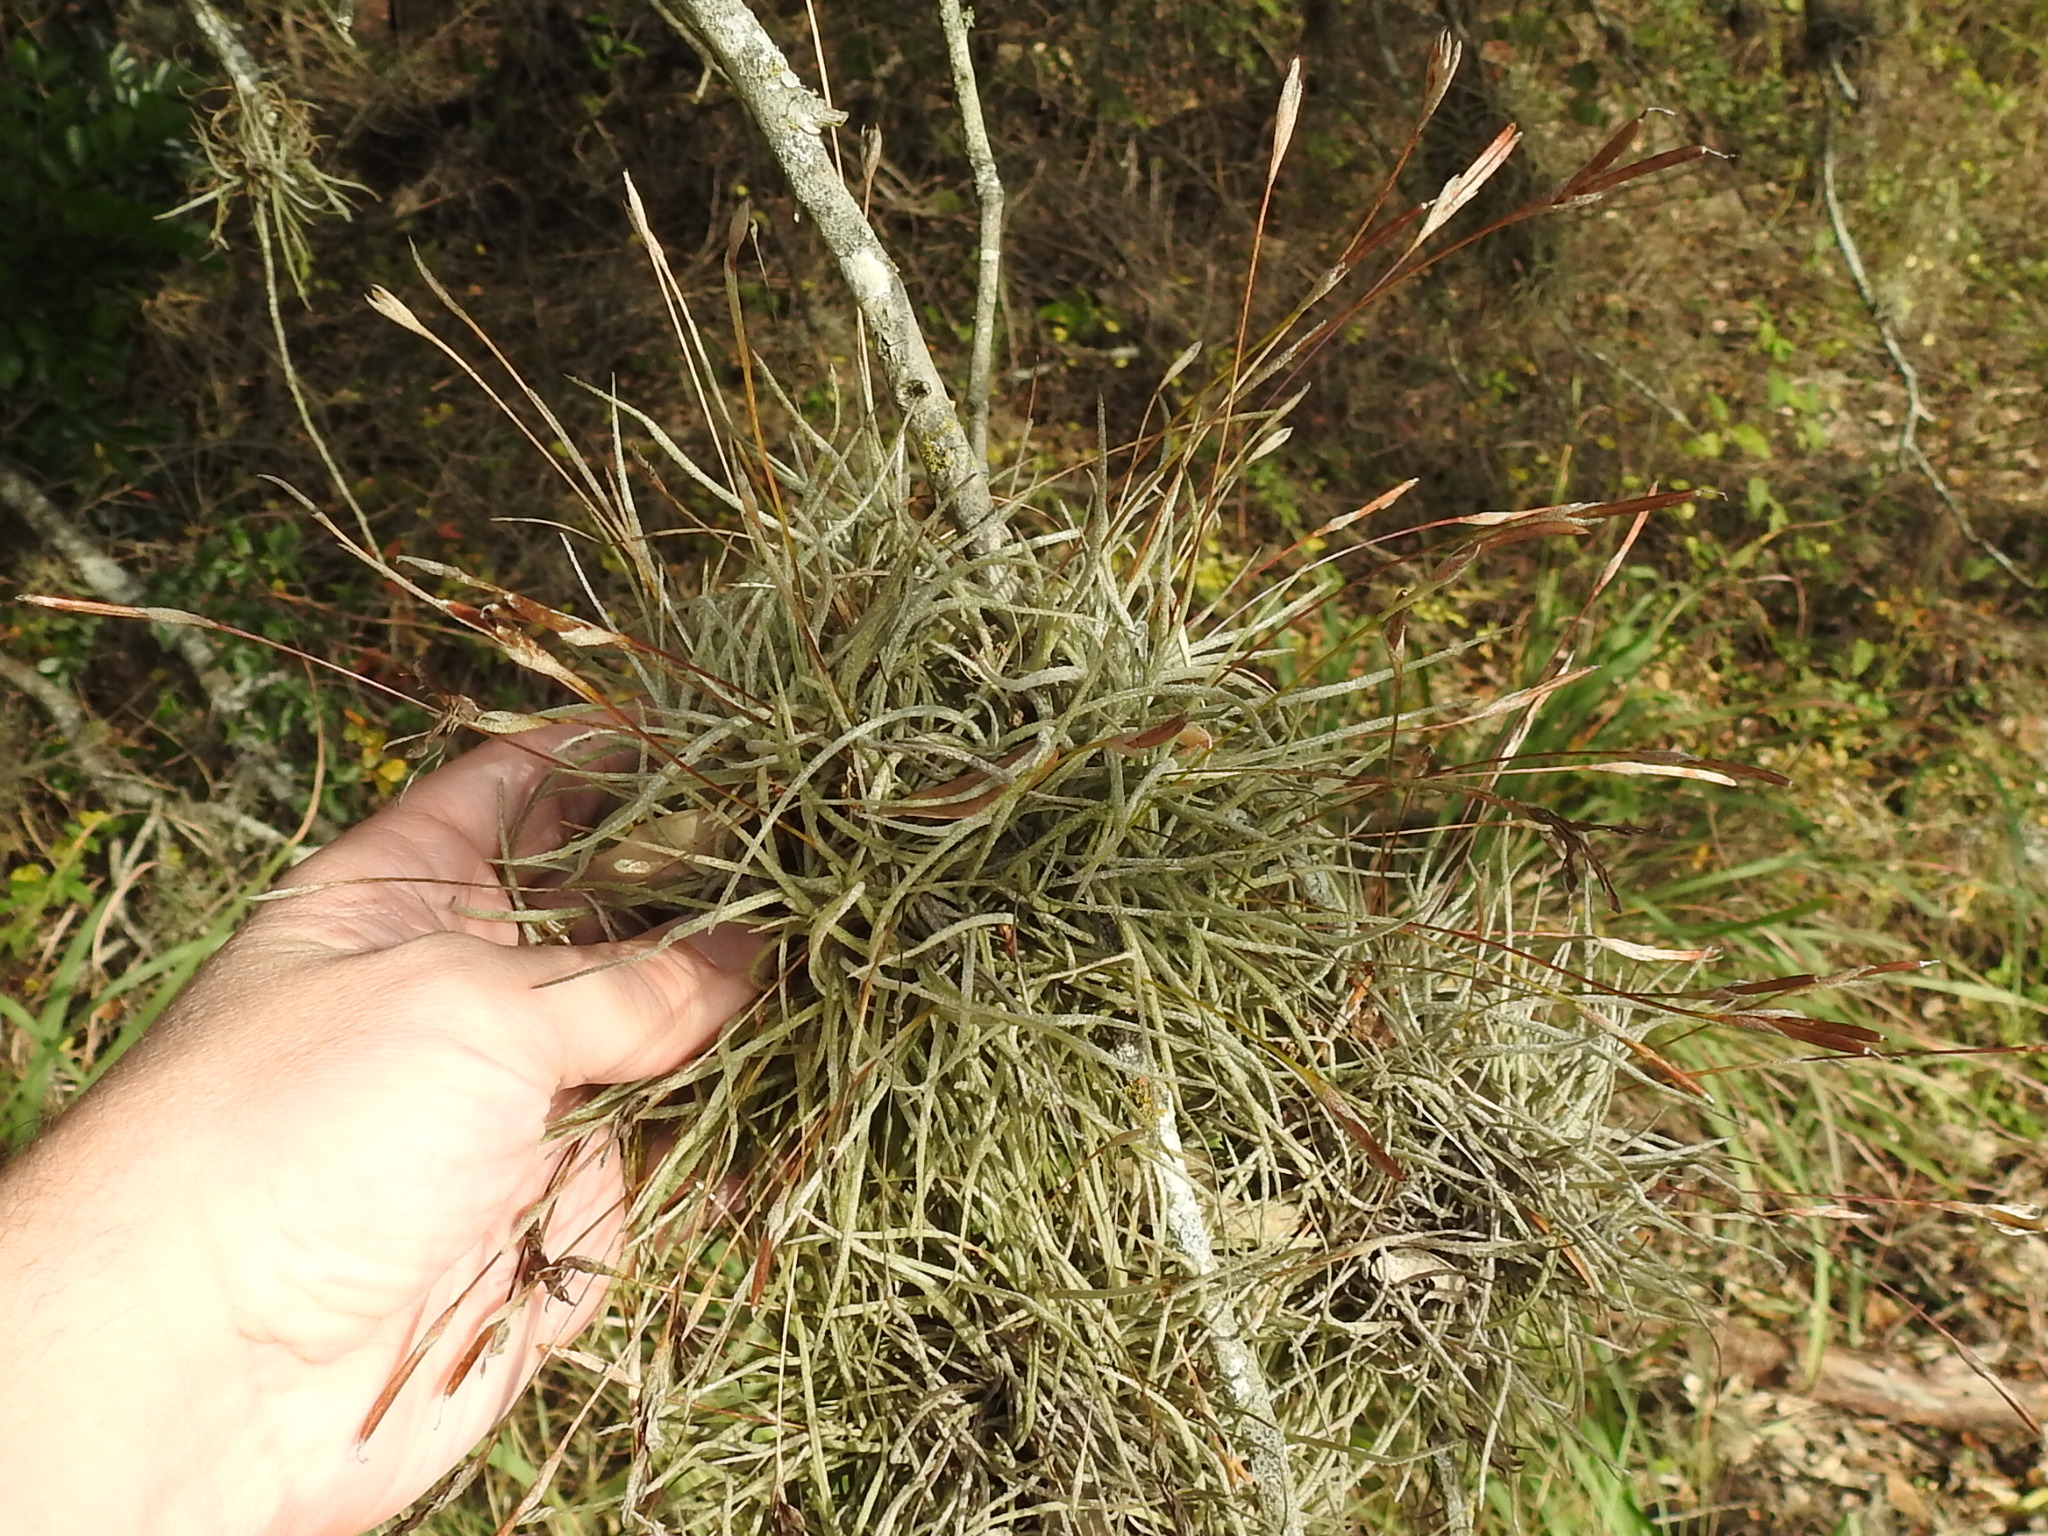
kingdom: Plantae
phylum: Tracheophyta
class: Liliopsida
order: Poales
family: Bromeliaceae
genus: Tillandsia
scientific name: Tillandsia recurvata
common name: Small ballmoss
